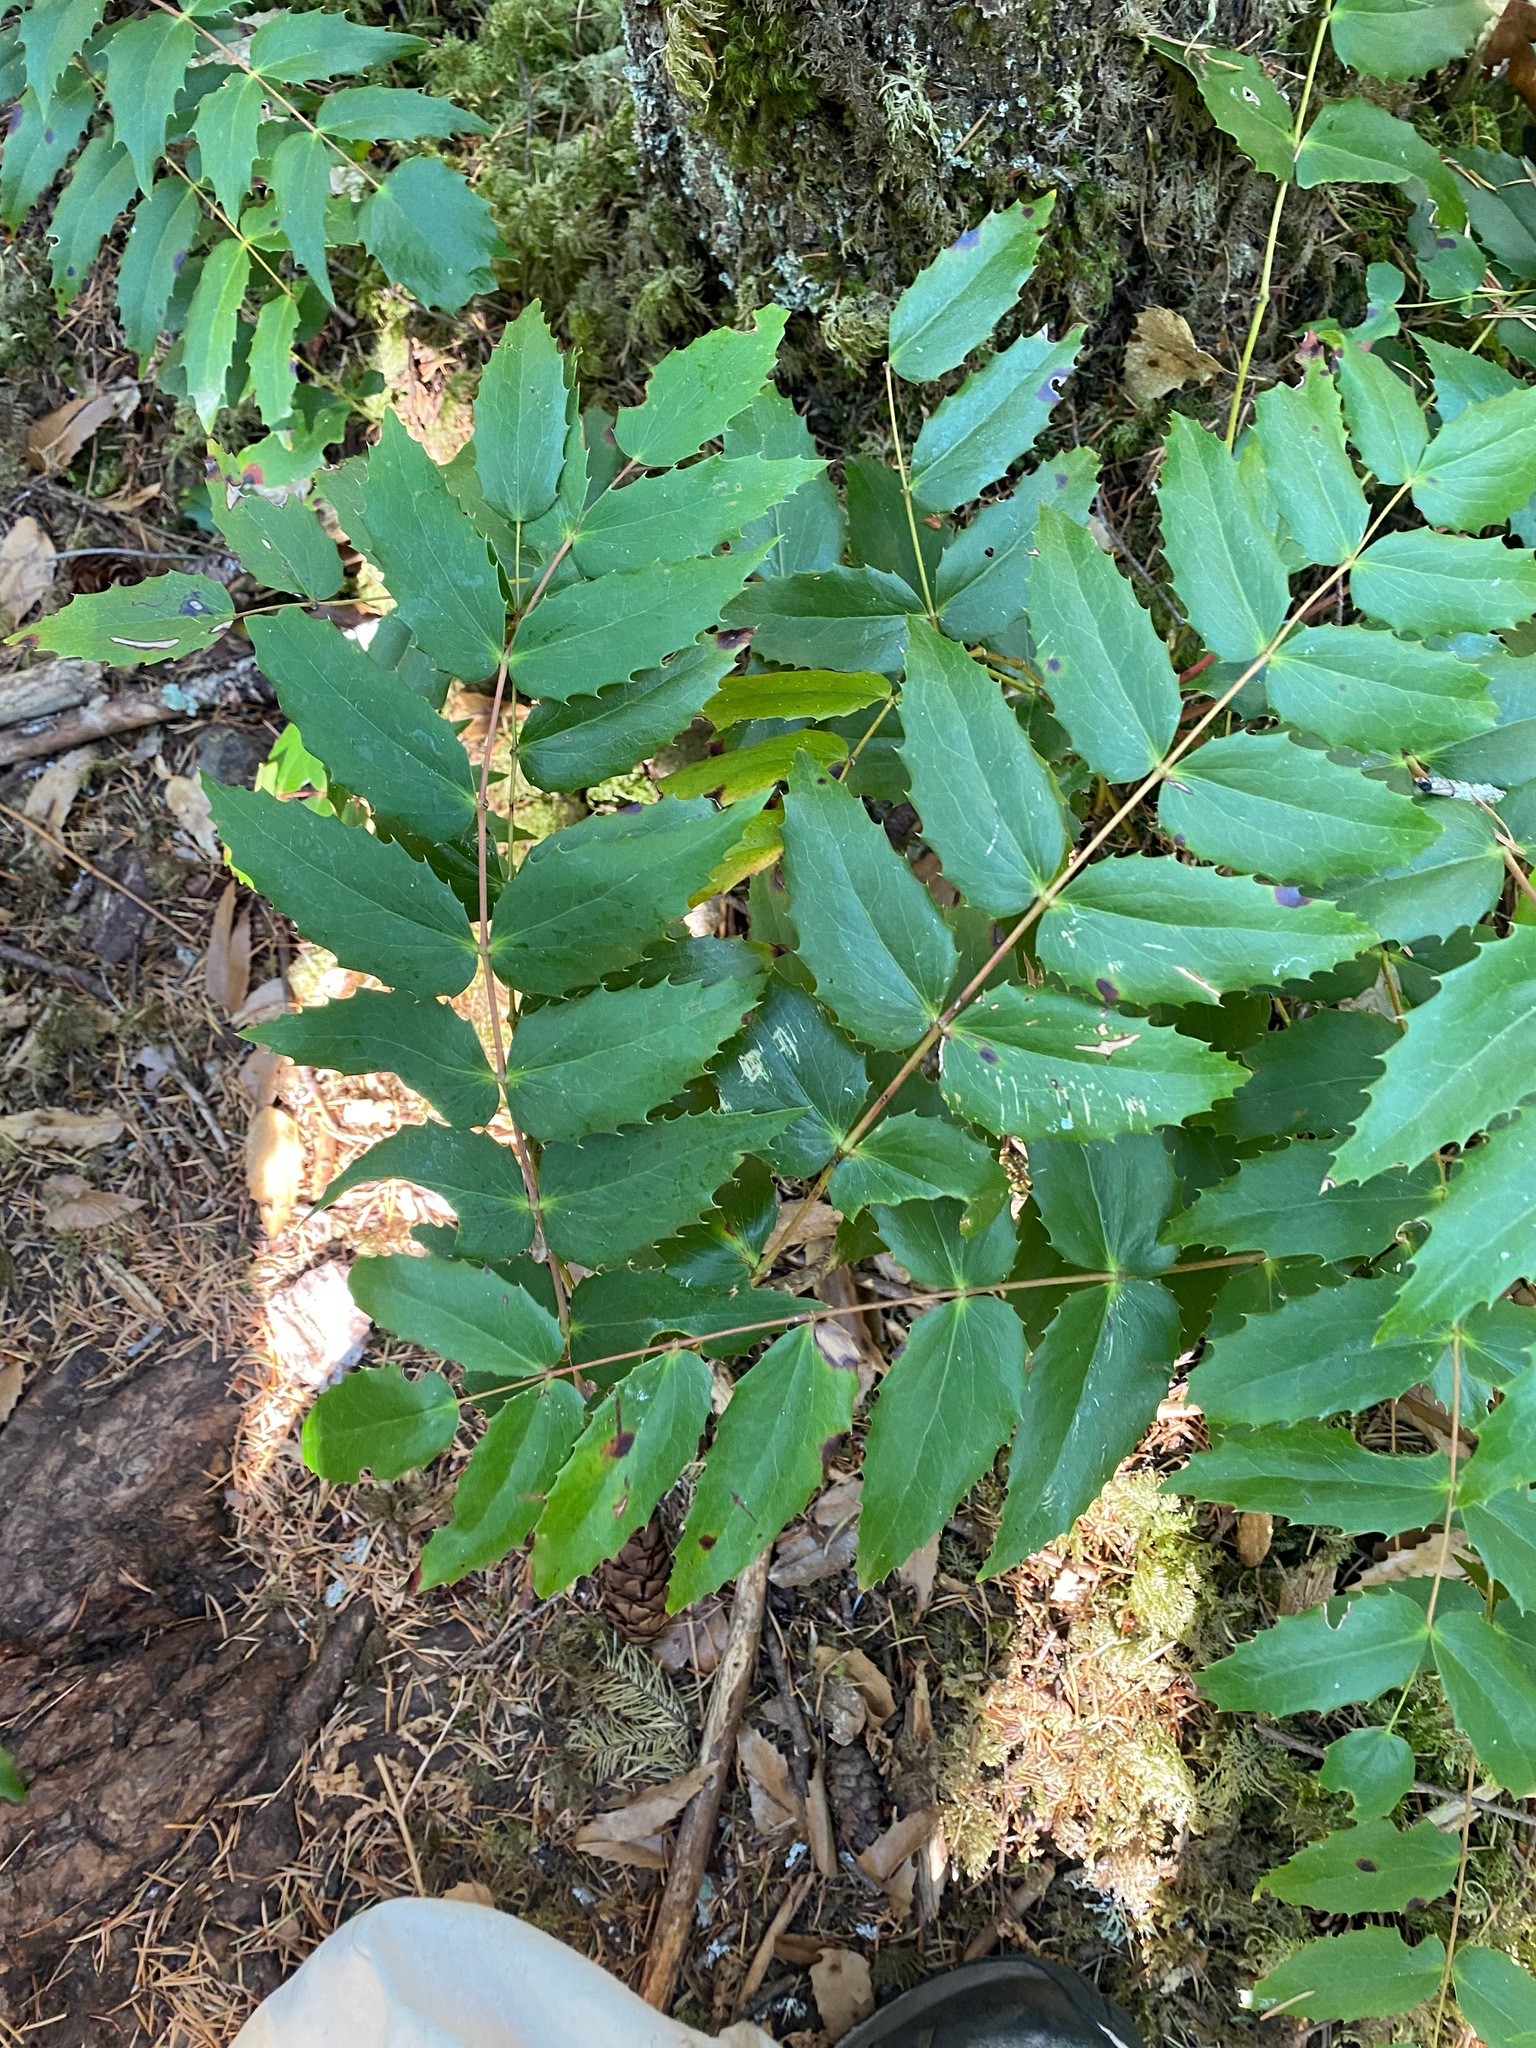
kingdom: Plantae
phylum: Tracheophyta
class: Magnoliopsida
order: Ranunculales
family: Berberidaceae
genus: Mahonia
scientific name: Mahonia nervosa
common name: Cascade oregon-grape
